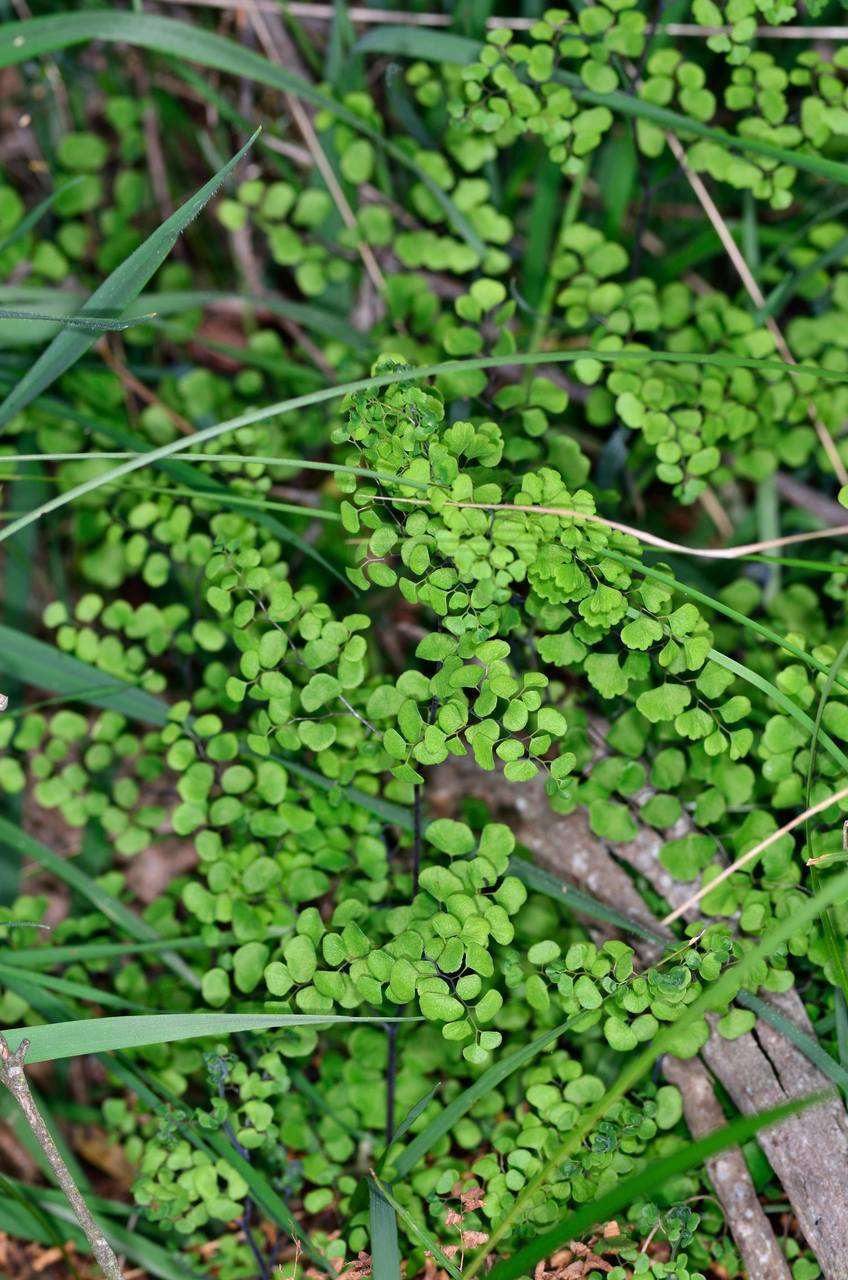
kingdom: Plantae
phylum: Tracheophyta
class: Polypodiopsida
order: Polypodiales
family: Pteridaceae
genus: Adiantum
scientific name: Adiantum aethiopicum
